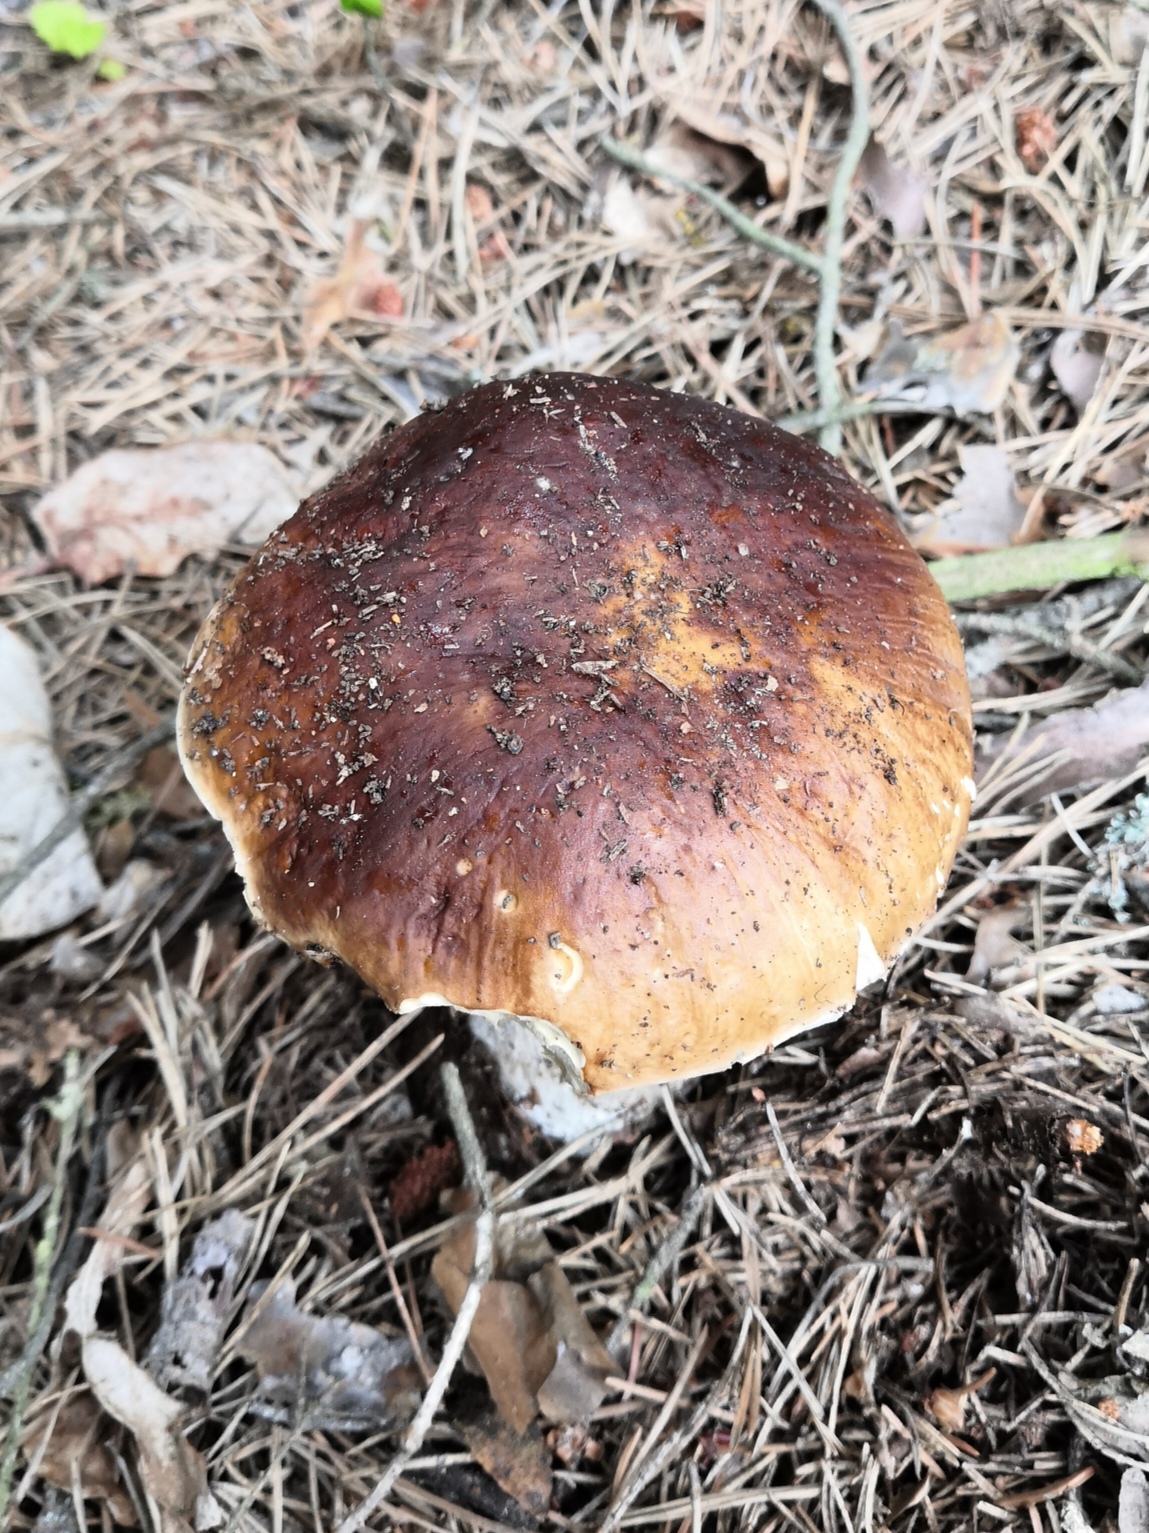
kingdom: Fungi
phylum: Basidiomycota
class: Agaricomycetes
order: Boletales
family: Boletaceae
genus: Boletus
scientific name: Boletus edulis
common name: Cep
